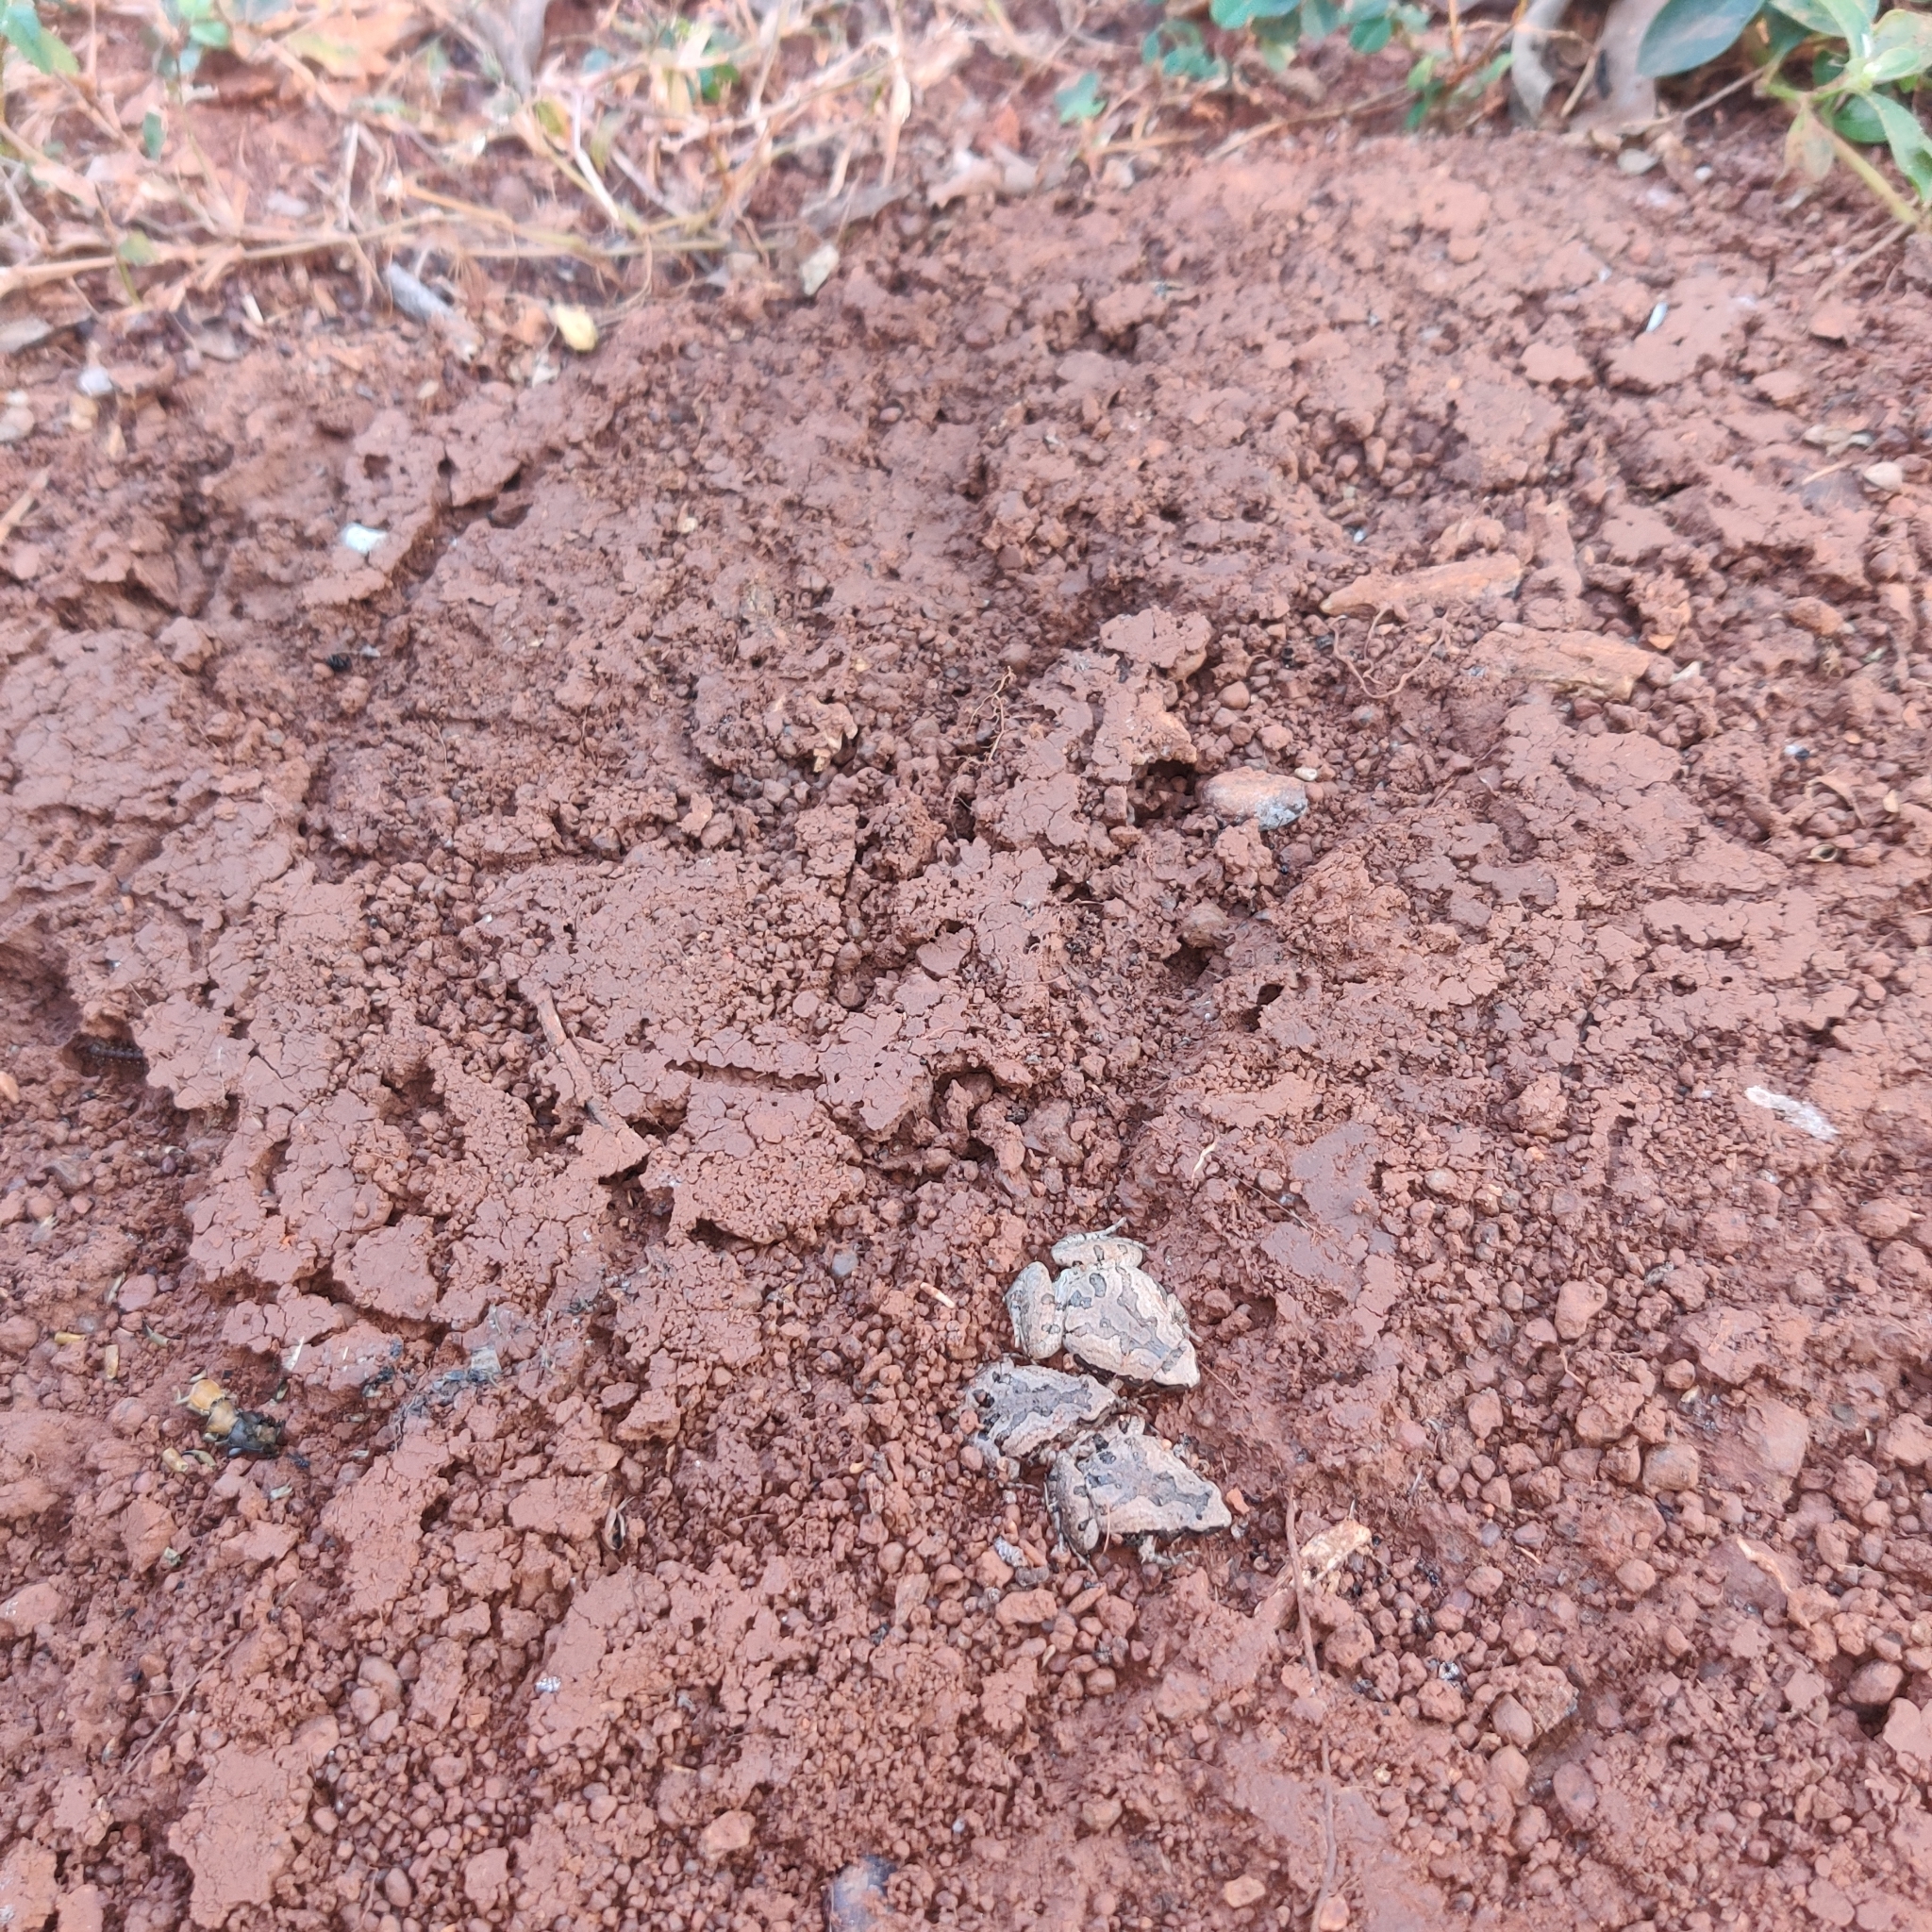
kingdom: Animalia
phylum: Chordata
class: Amphibia
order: Anura
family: Microhylidae
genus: Microhyla
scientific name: Microhyla nilphamariensis
